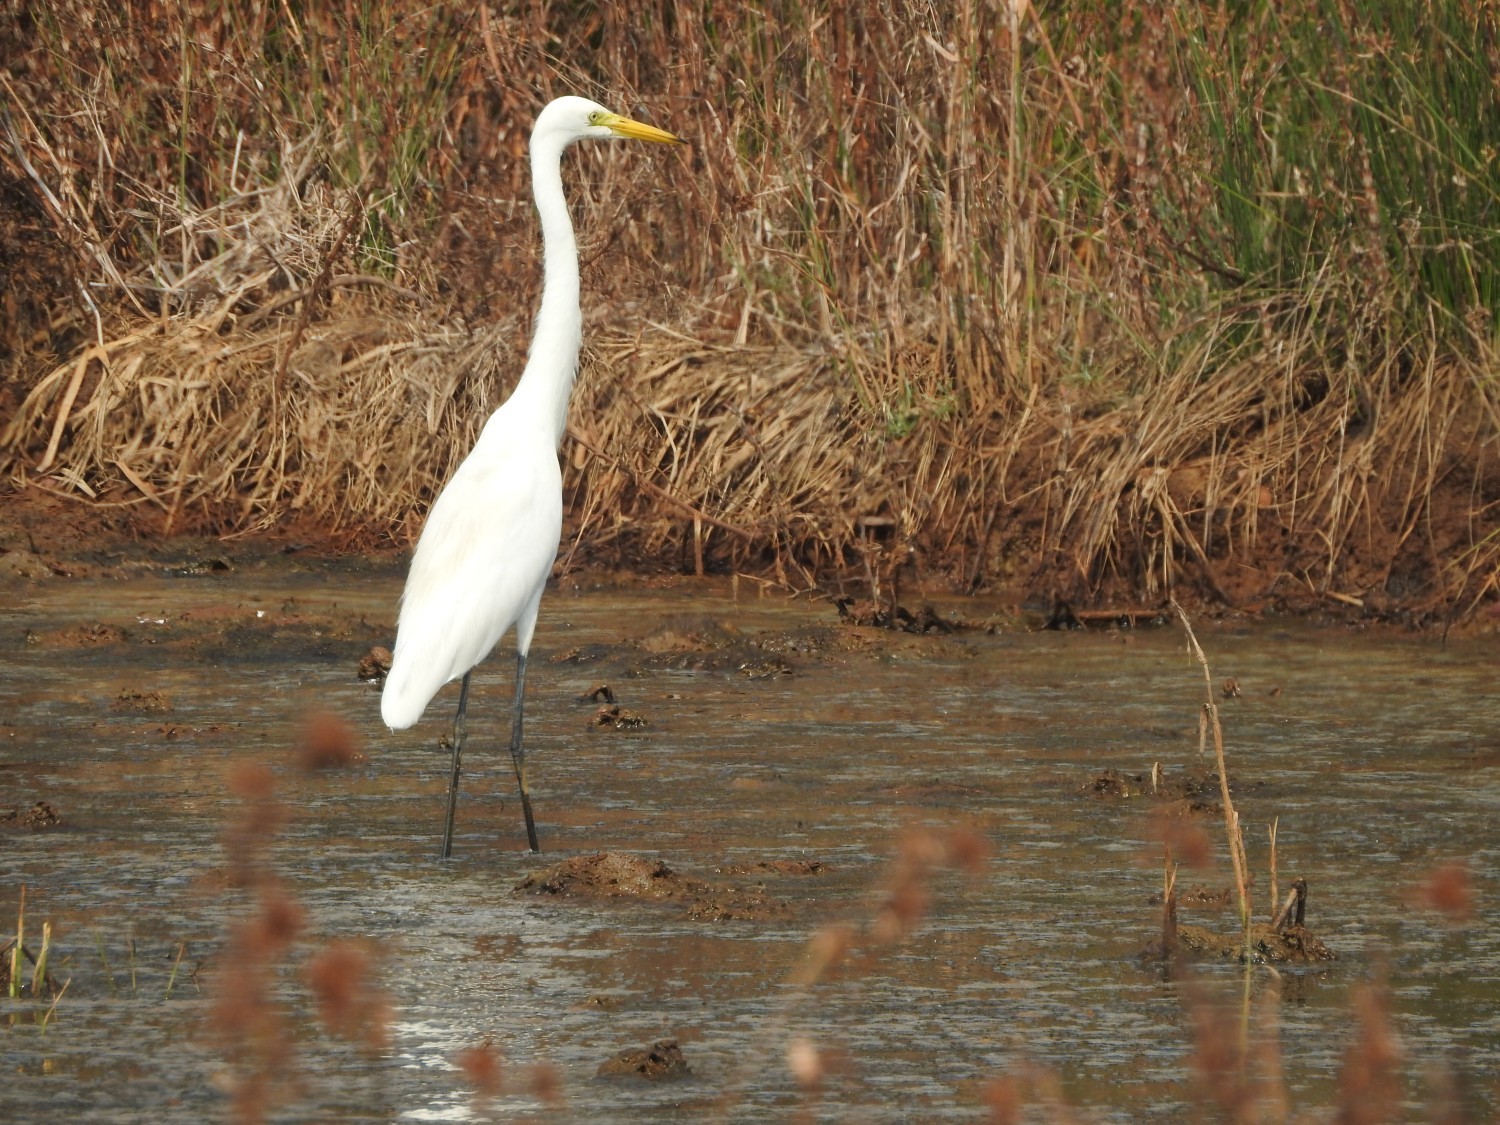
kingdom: Animalia
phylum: Chordata
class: Aves
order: Pelecaniformes
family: Ardeidae
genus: Egretta
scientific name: Egretta intermedia
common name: Intermediate egret
